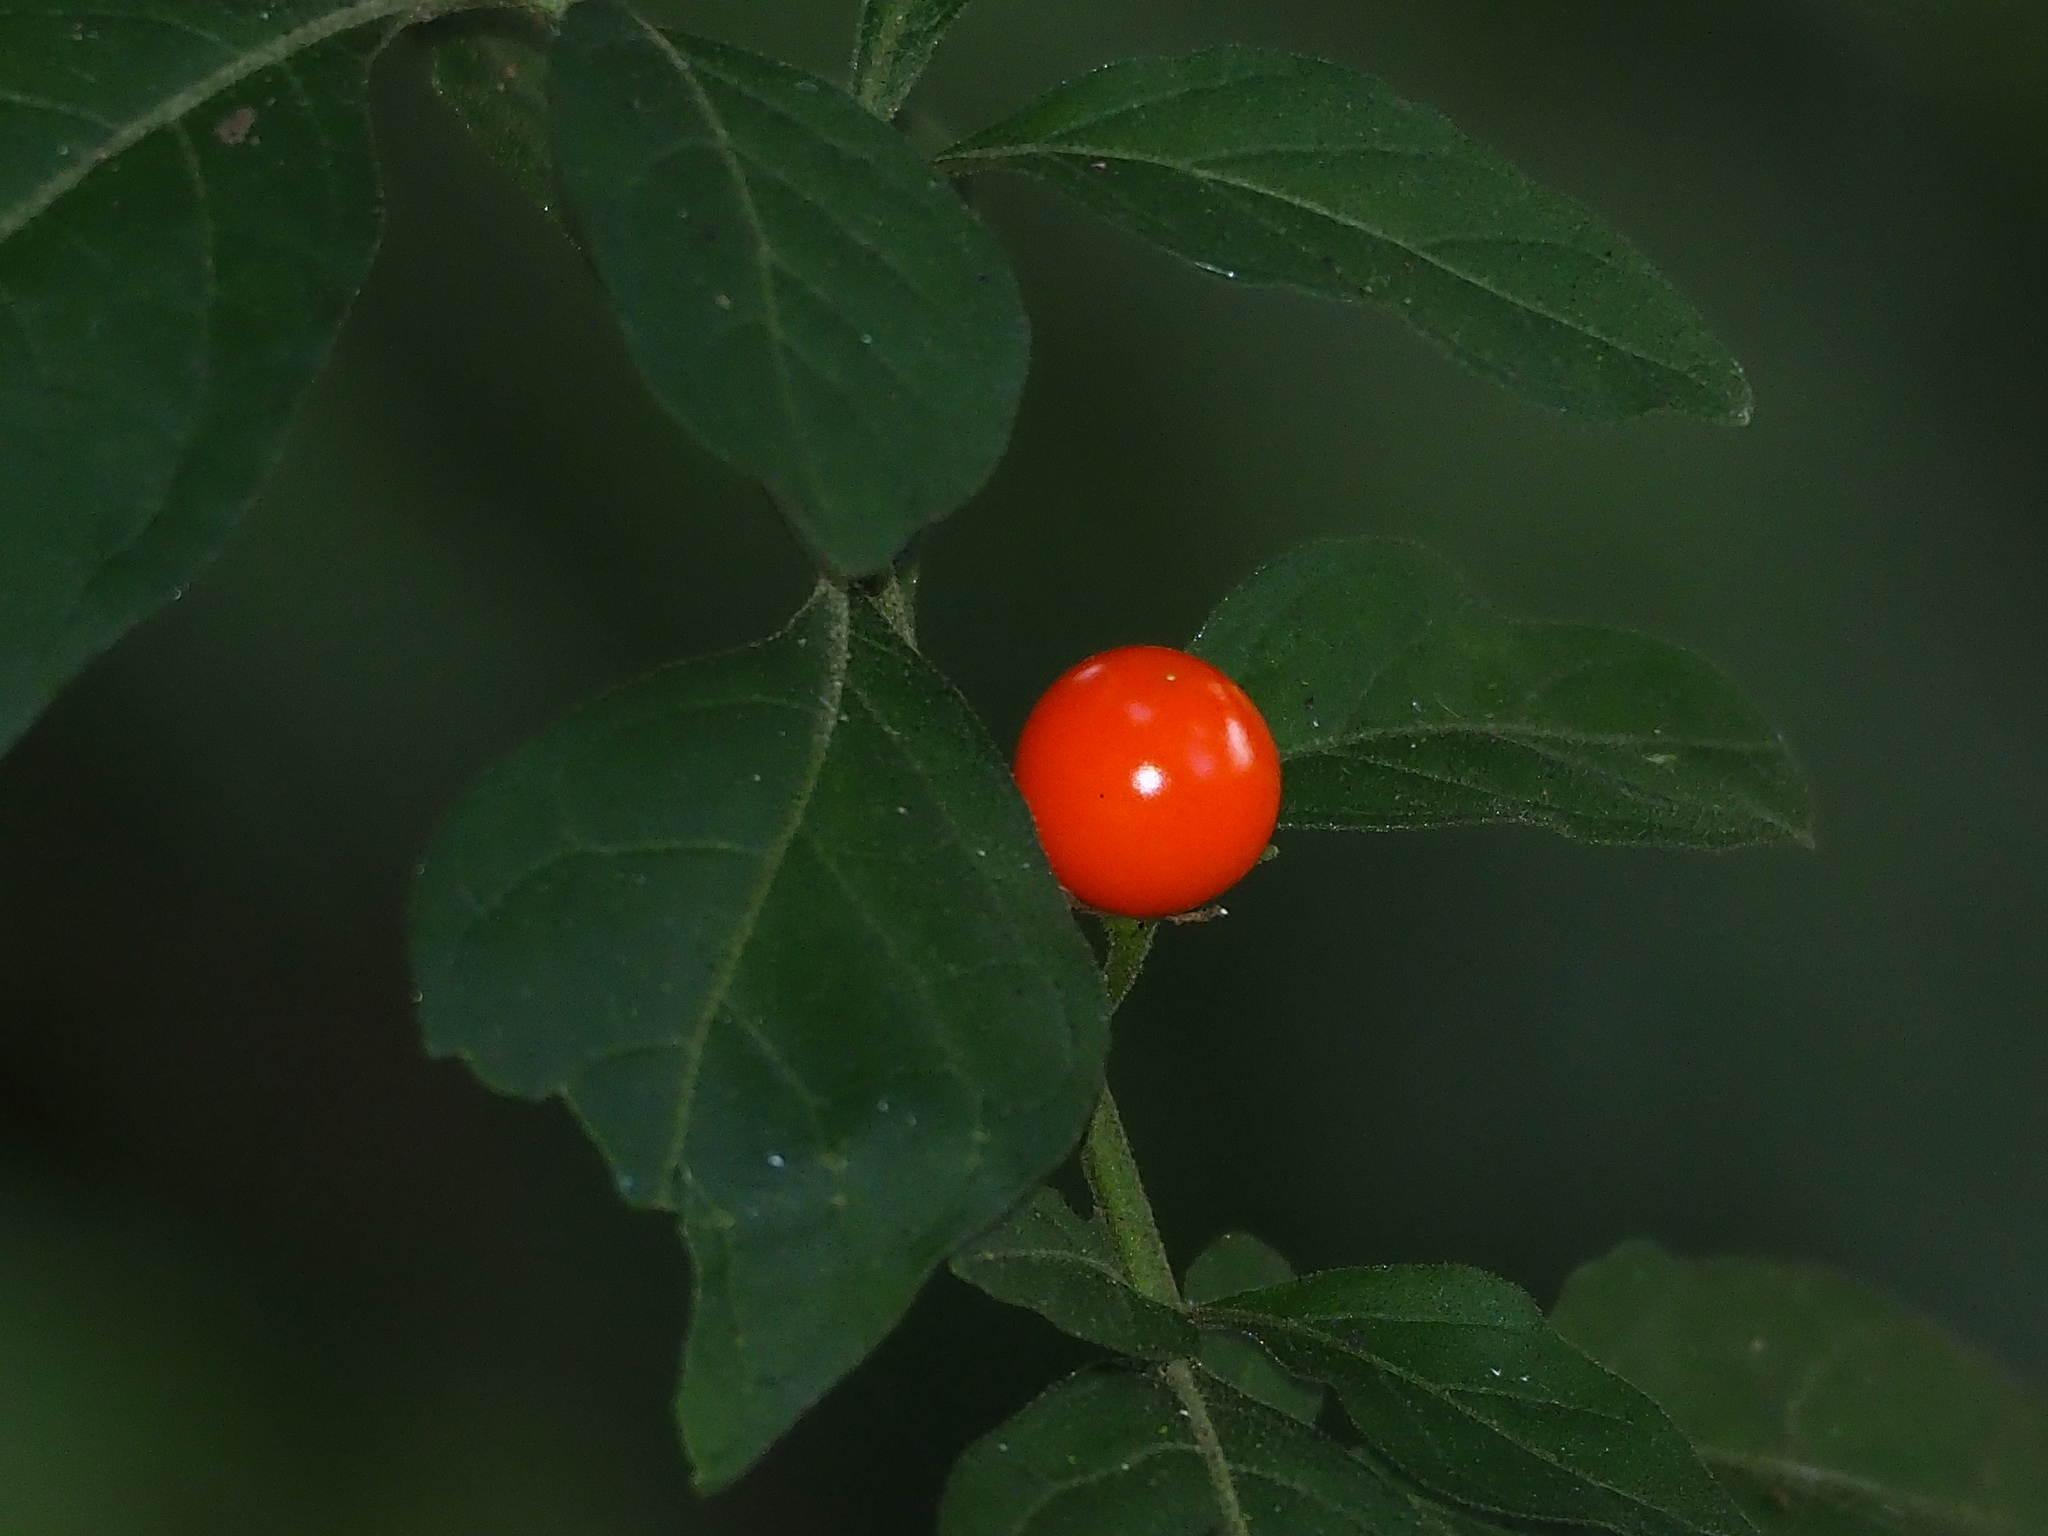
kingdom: Plantae
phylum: Tracheophyta
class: Magnoliopsida
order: Solanales
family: Solanaceae
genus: Solanum
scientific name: Solanum pseudocapsicum
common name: Jerusalem cherry
